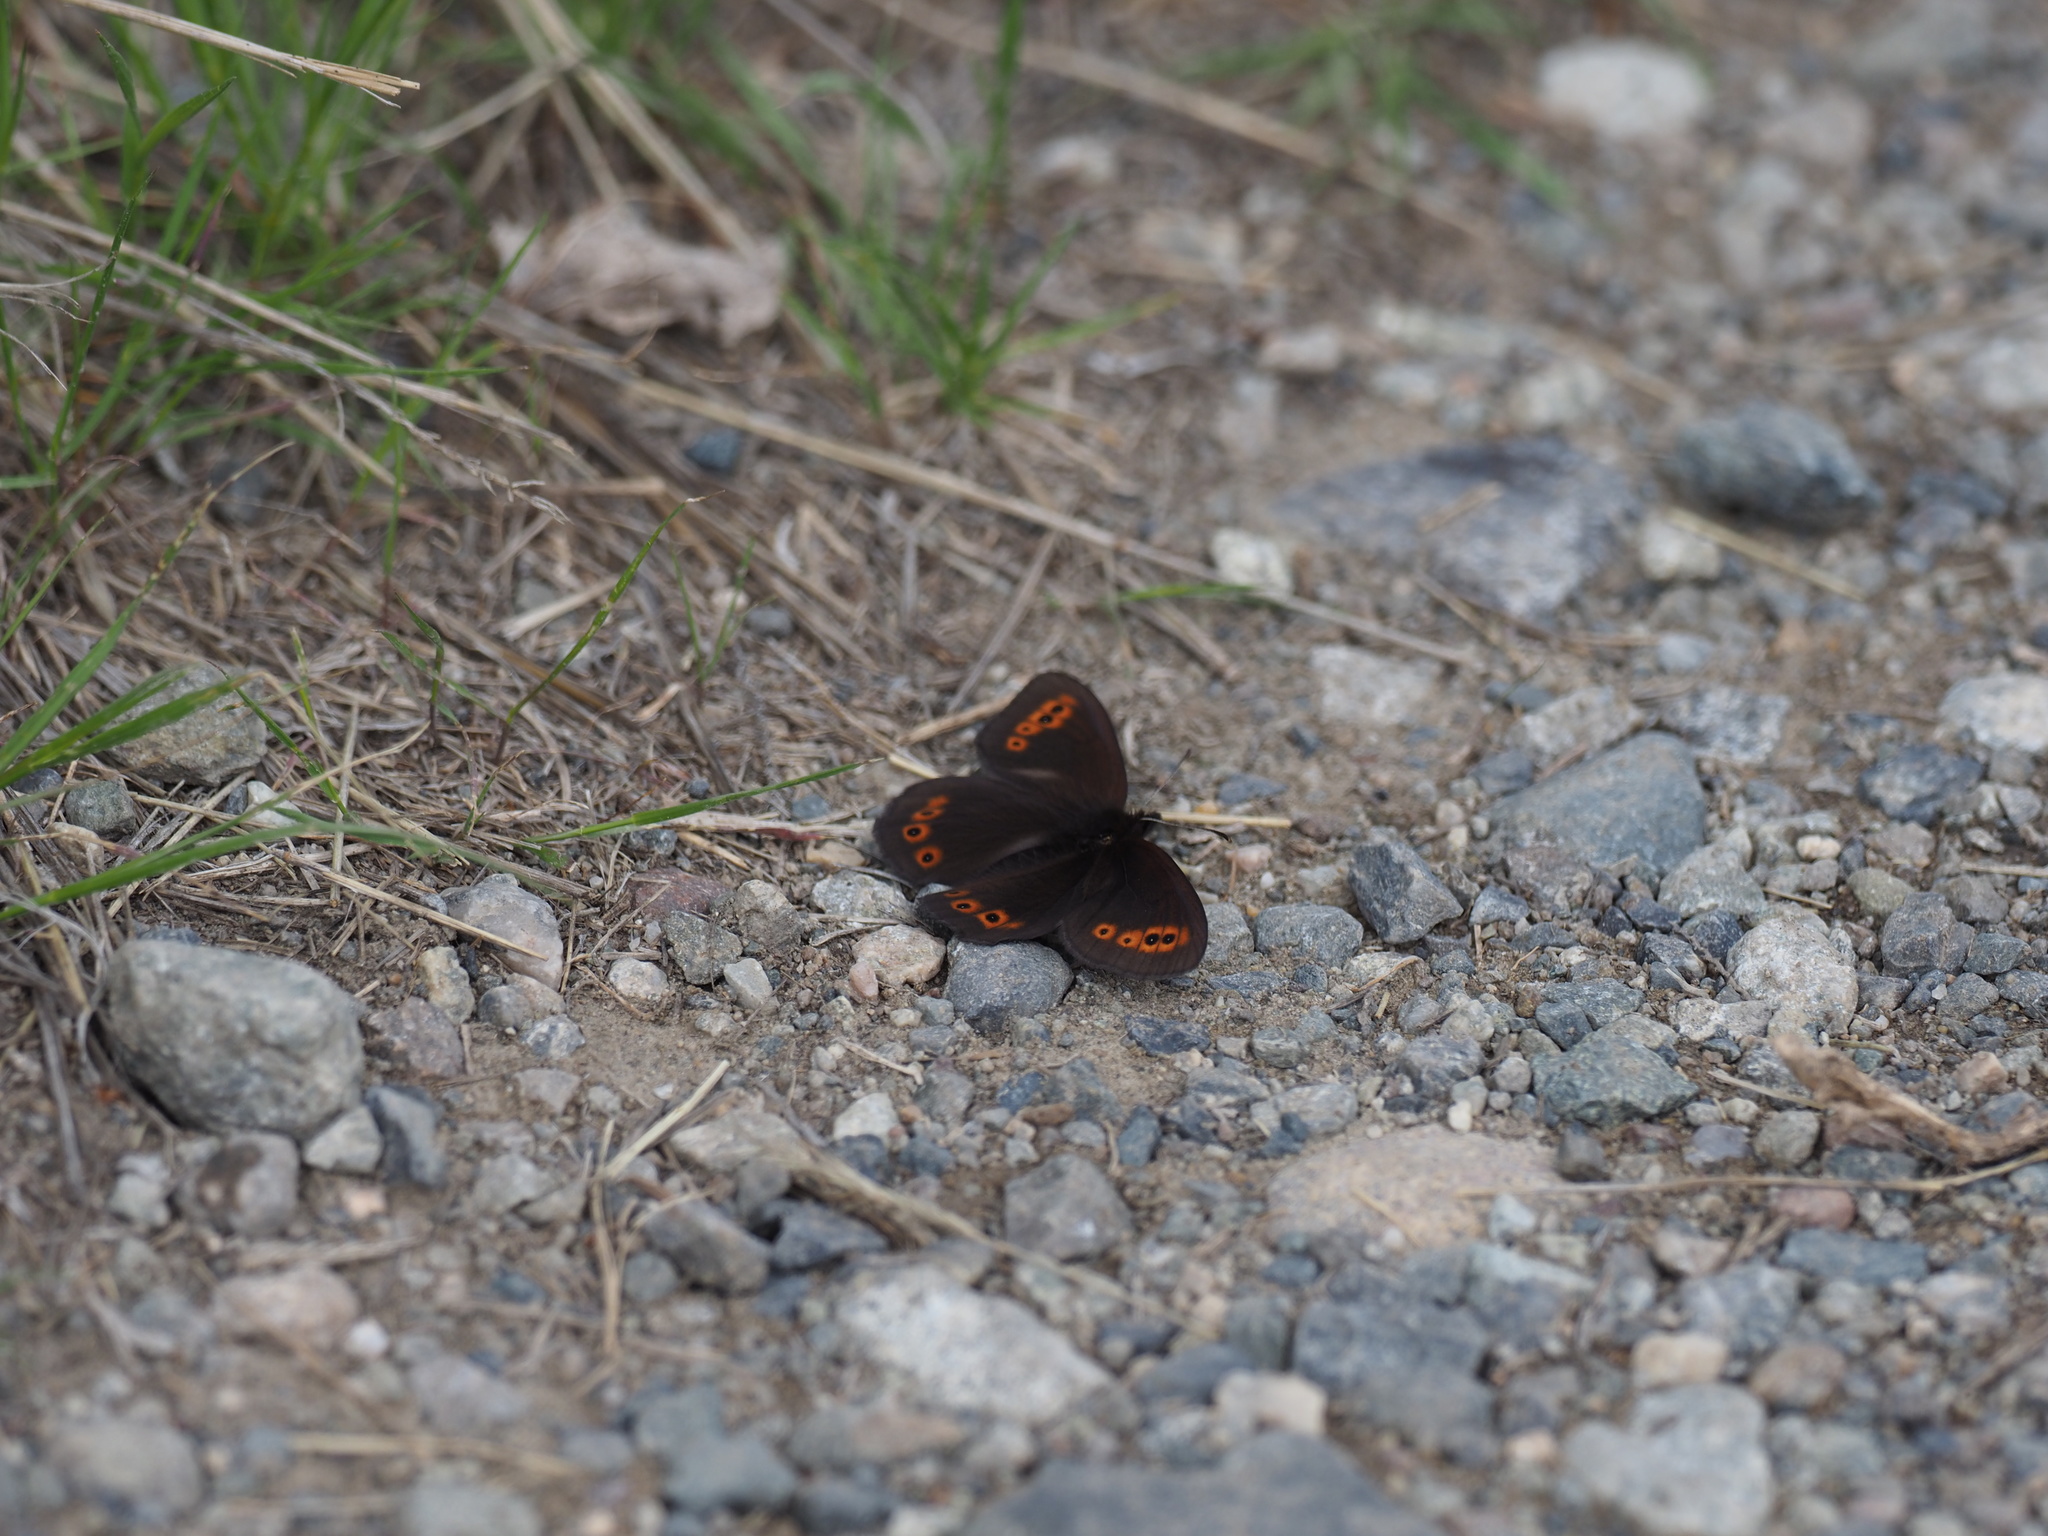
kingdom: Animalia
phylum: Arthropoda
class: Insecta
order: Lepidoptera
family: Nymphalidae
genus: Erebia
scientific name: Erebia epipsodea
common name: Common alpine
